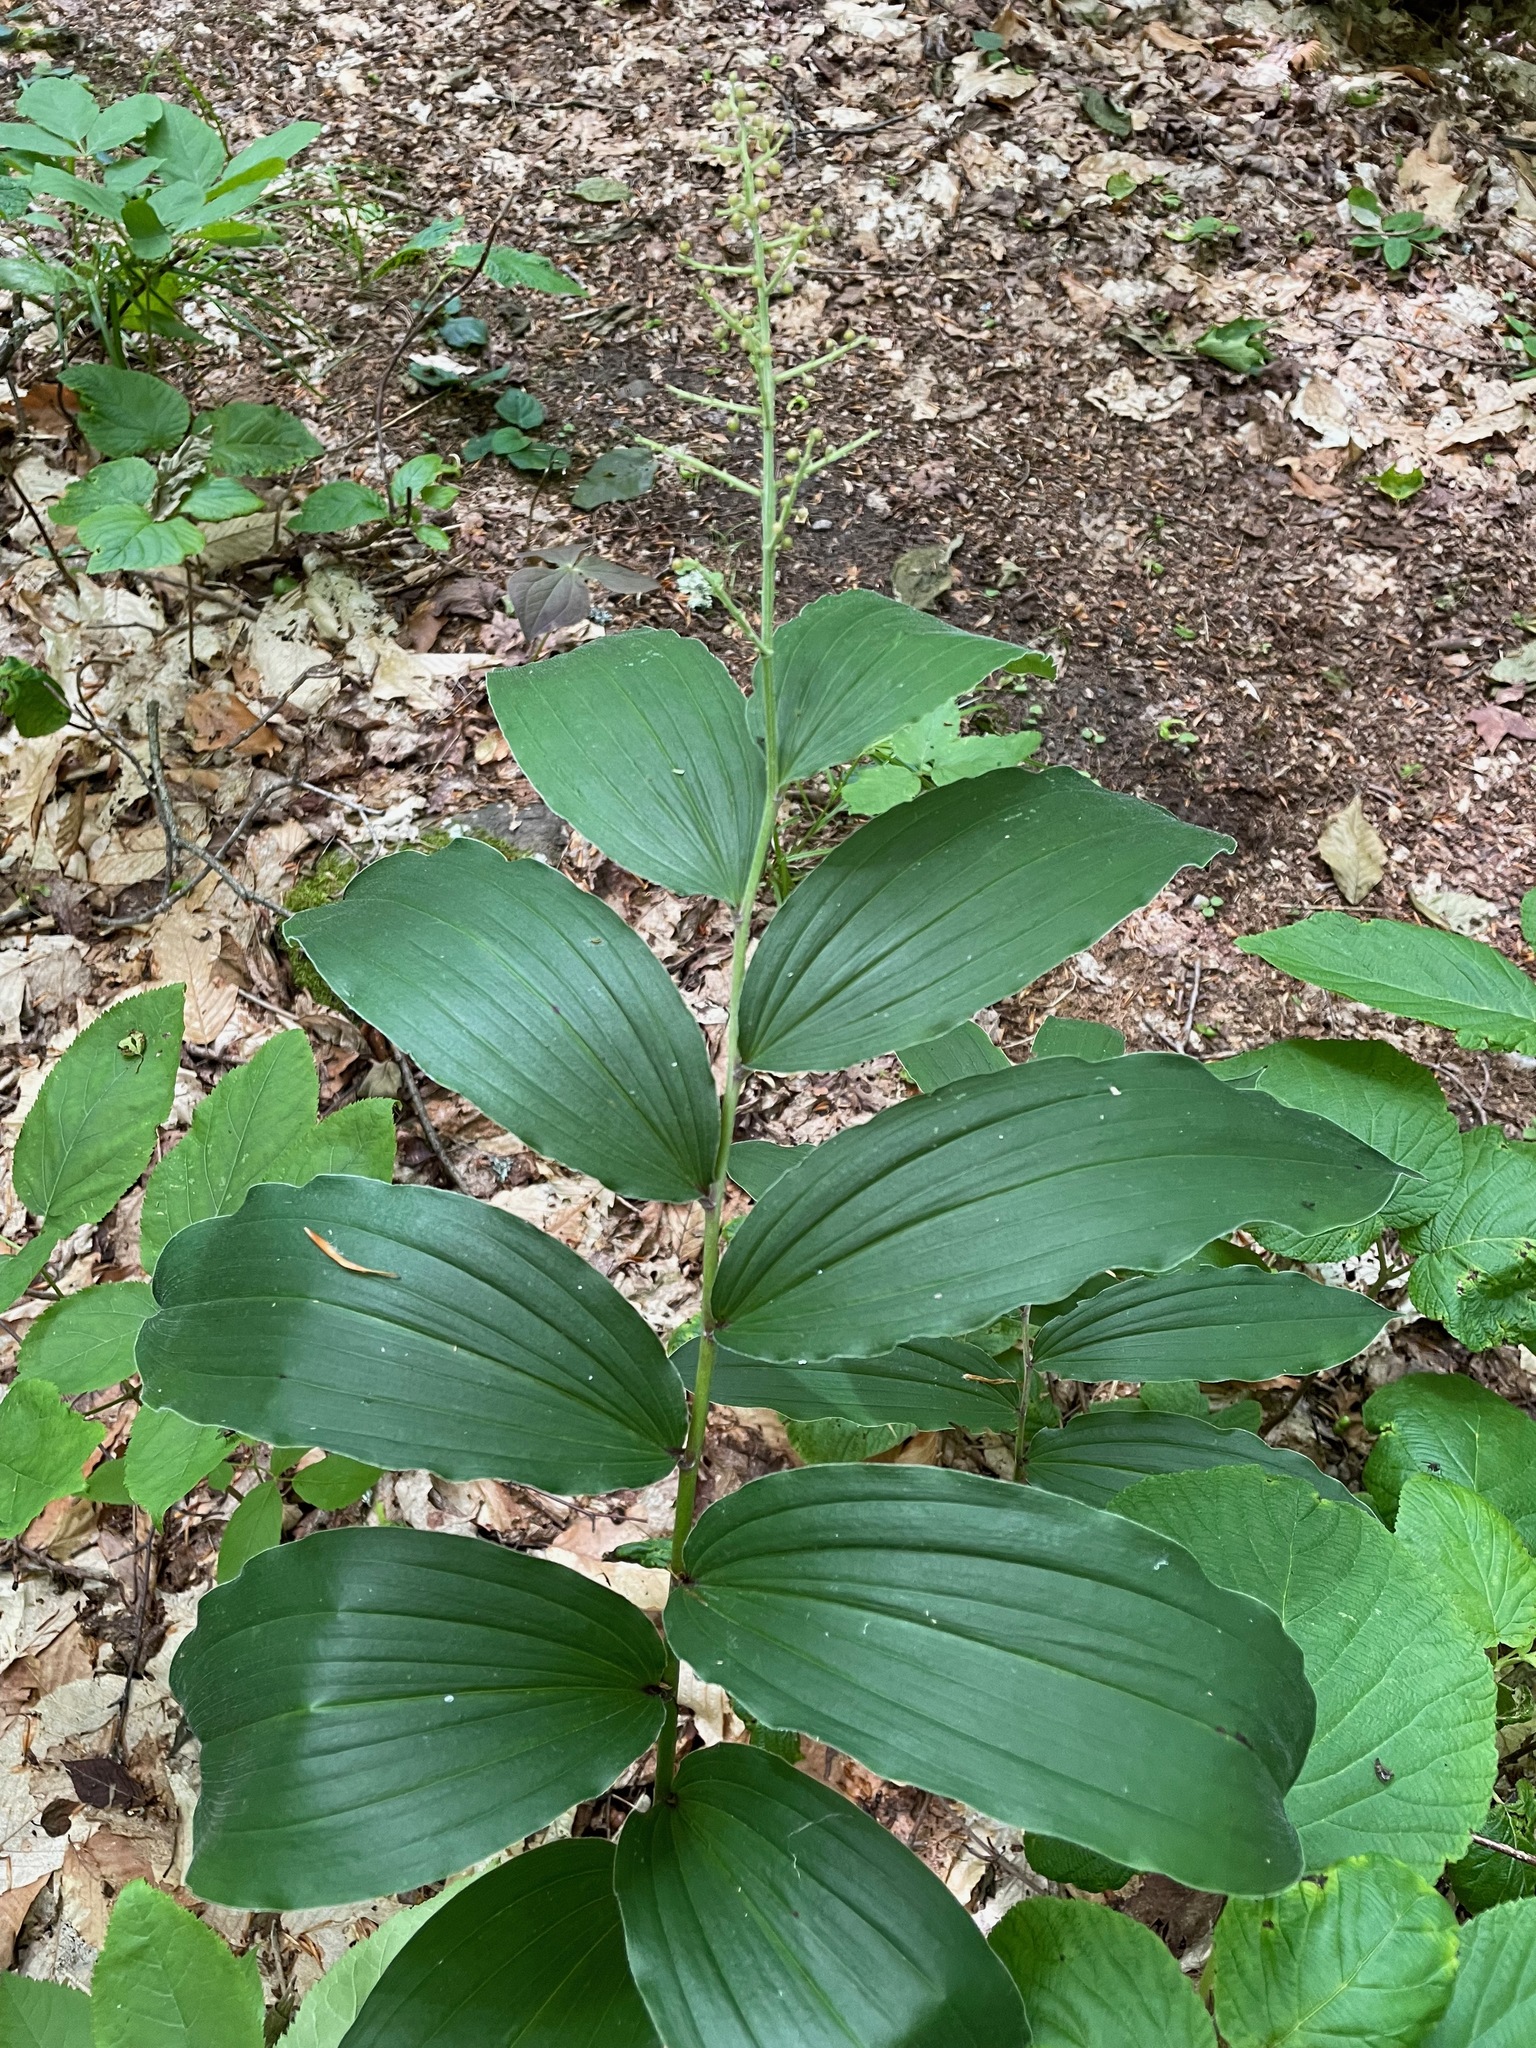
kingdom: Plantae
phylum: Tracheophyta
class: Liliopsida
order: Asparagales
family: Asparagaceae
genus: Maianthemum
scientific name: Maianthemum racemosum
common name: False spikenard
